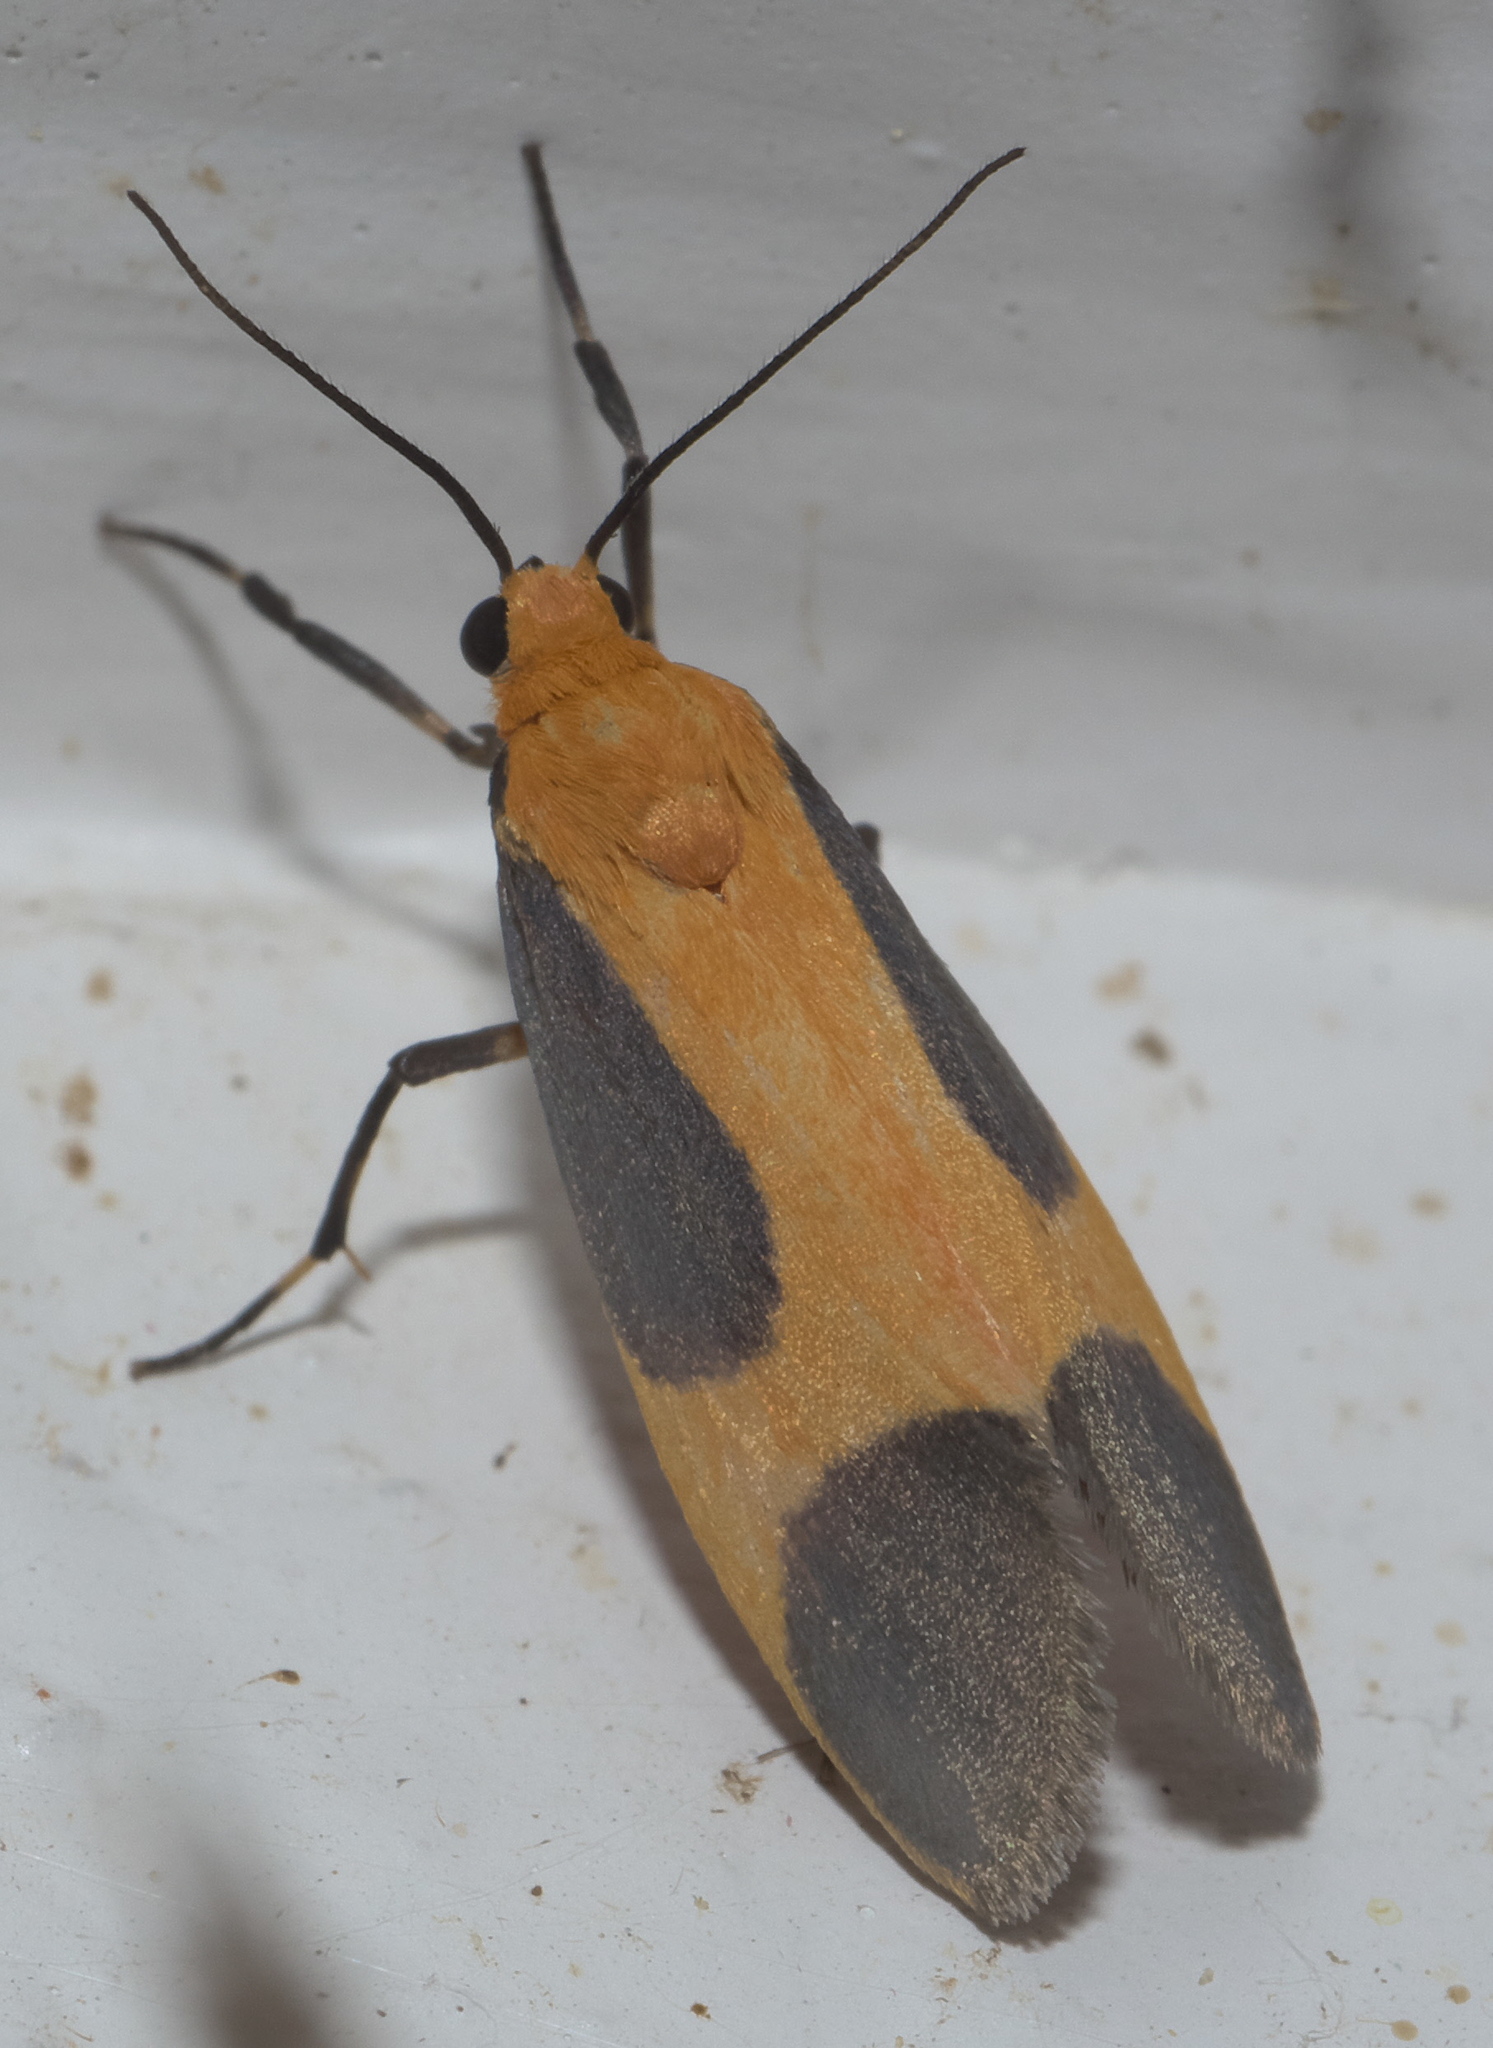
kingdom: Animalia
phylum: Arthropoda
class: Insecta
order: Lepidoptera
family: Erebidae
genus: Cisthene
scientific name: Cisthene picta
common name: Pictured lichen moth
